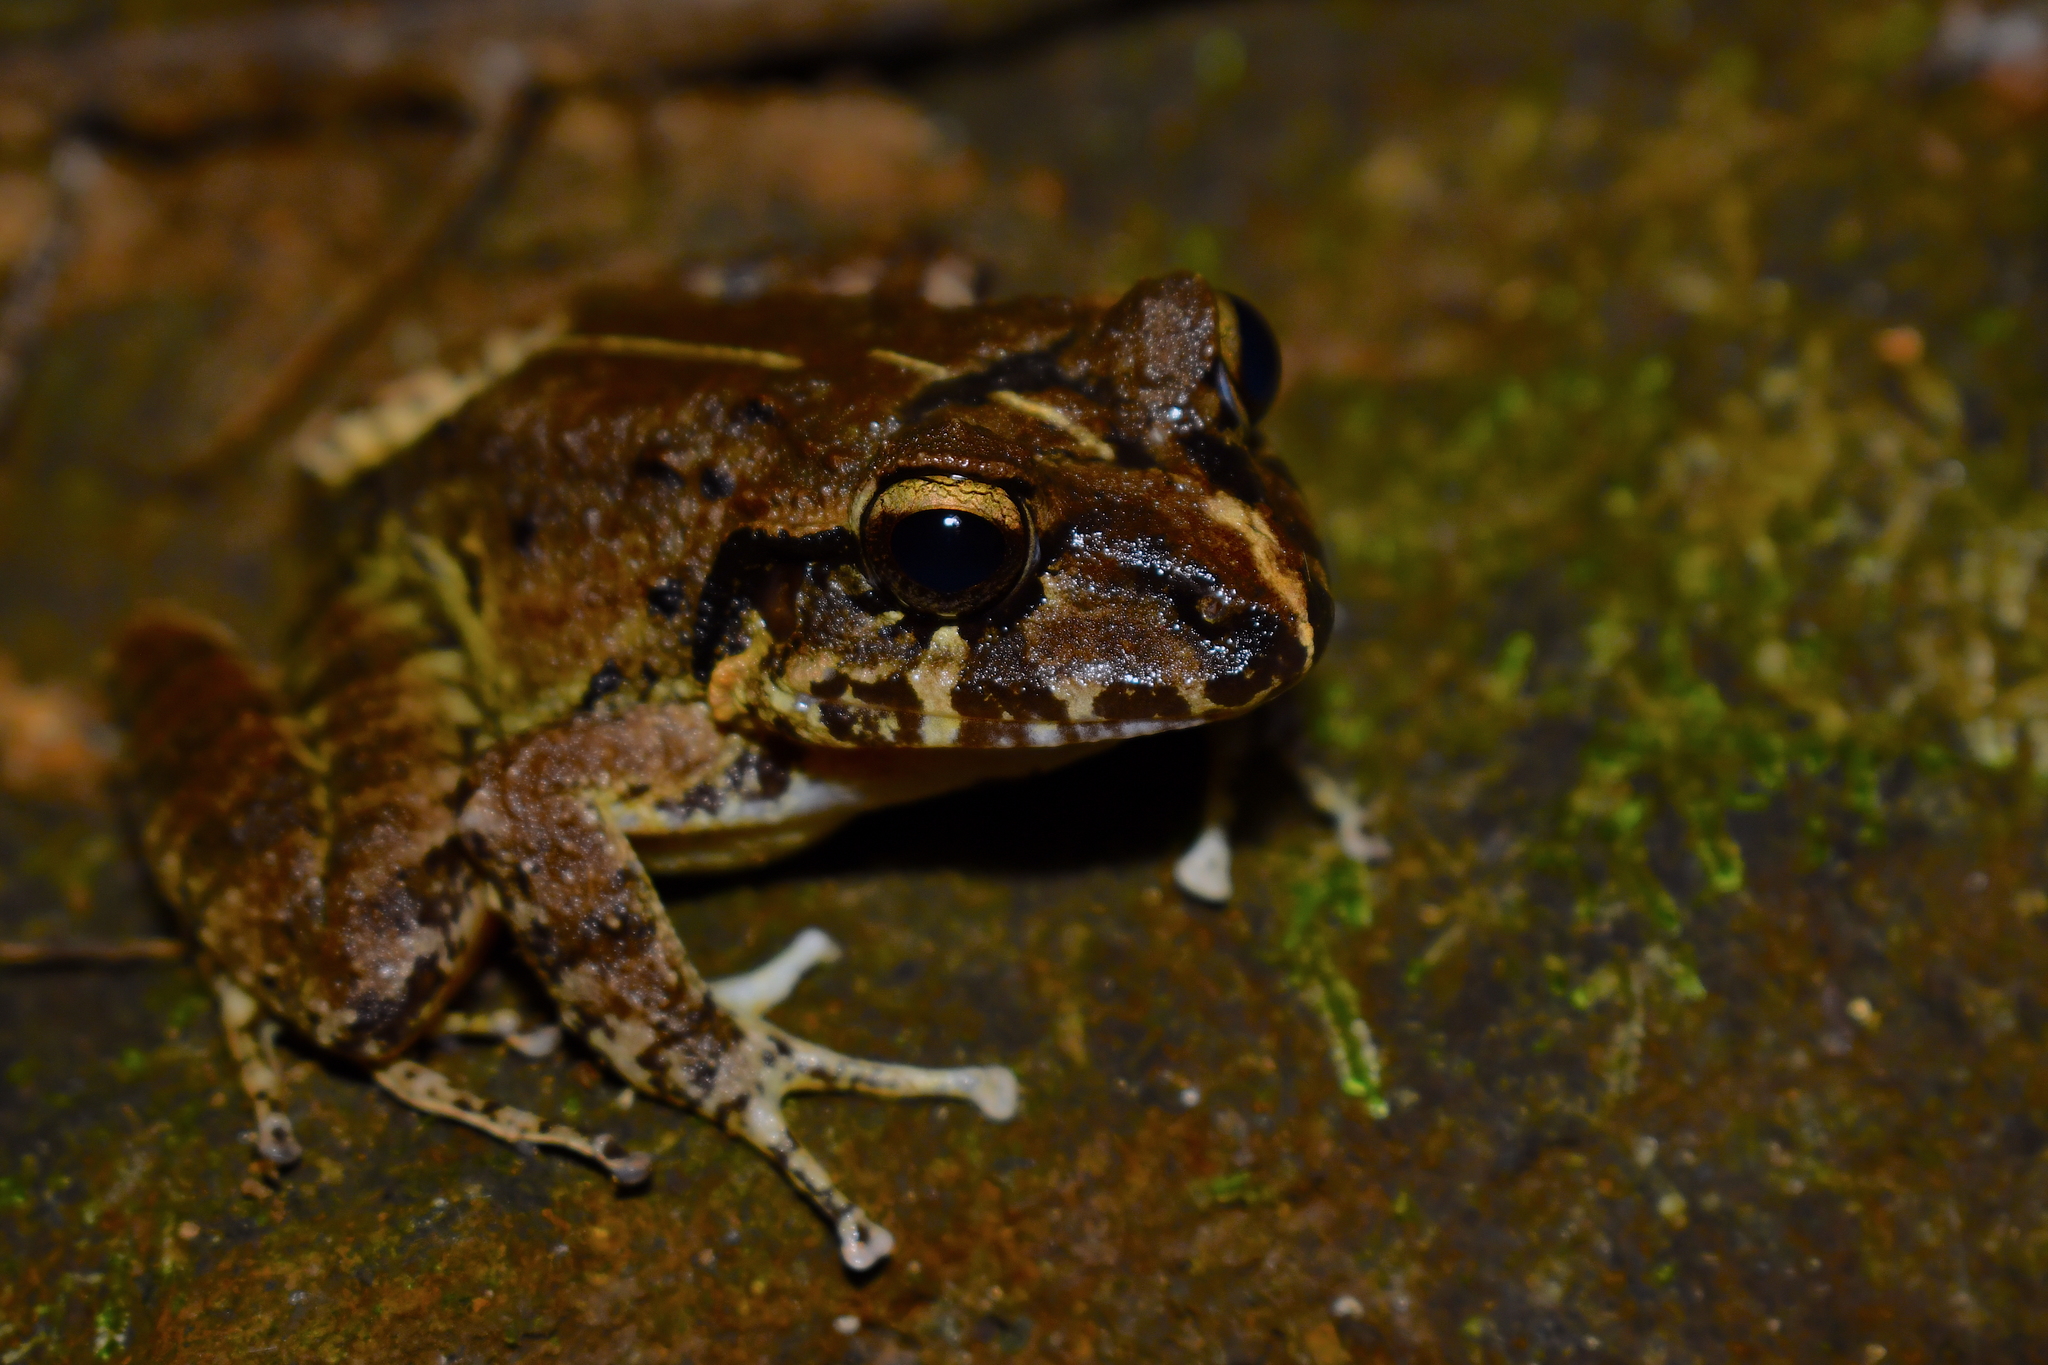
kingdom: Animalia
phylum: Chordata
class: Amphibia
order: Anura
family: Craugastoridae
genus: Craugastor
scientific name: Craugastor rupinius
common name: Cliffy stream frog
